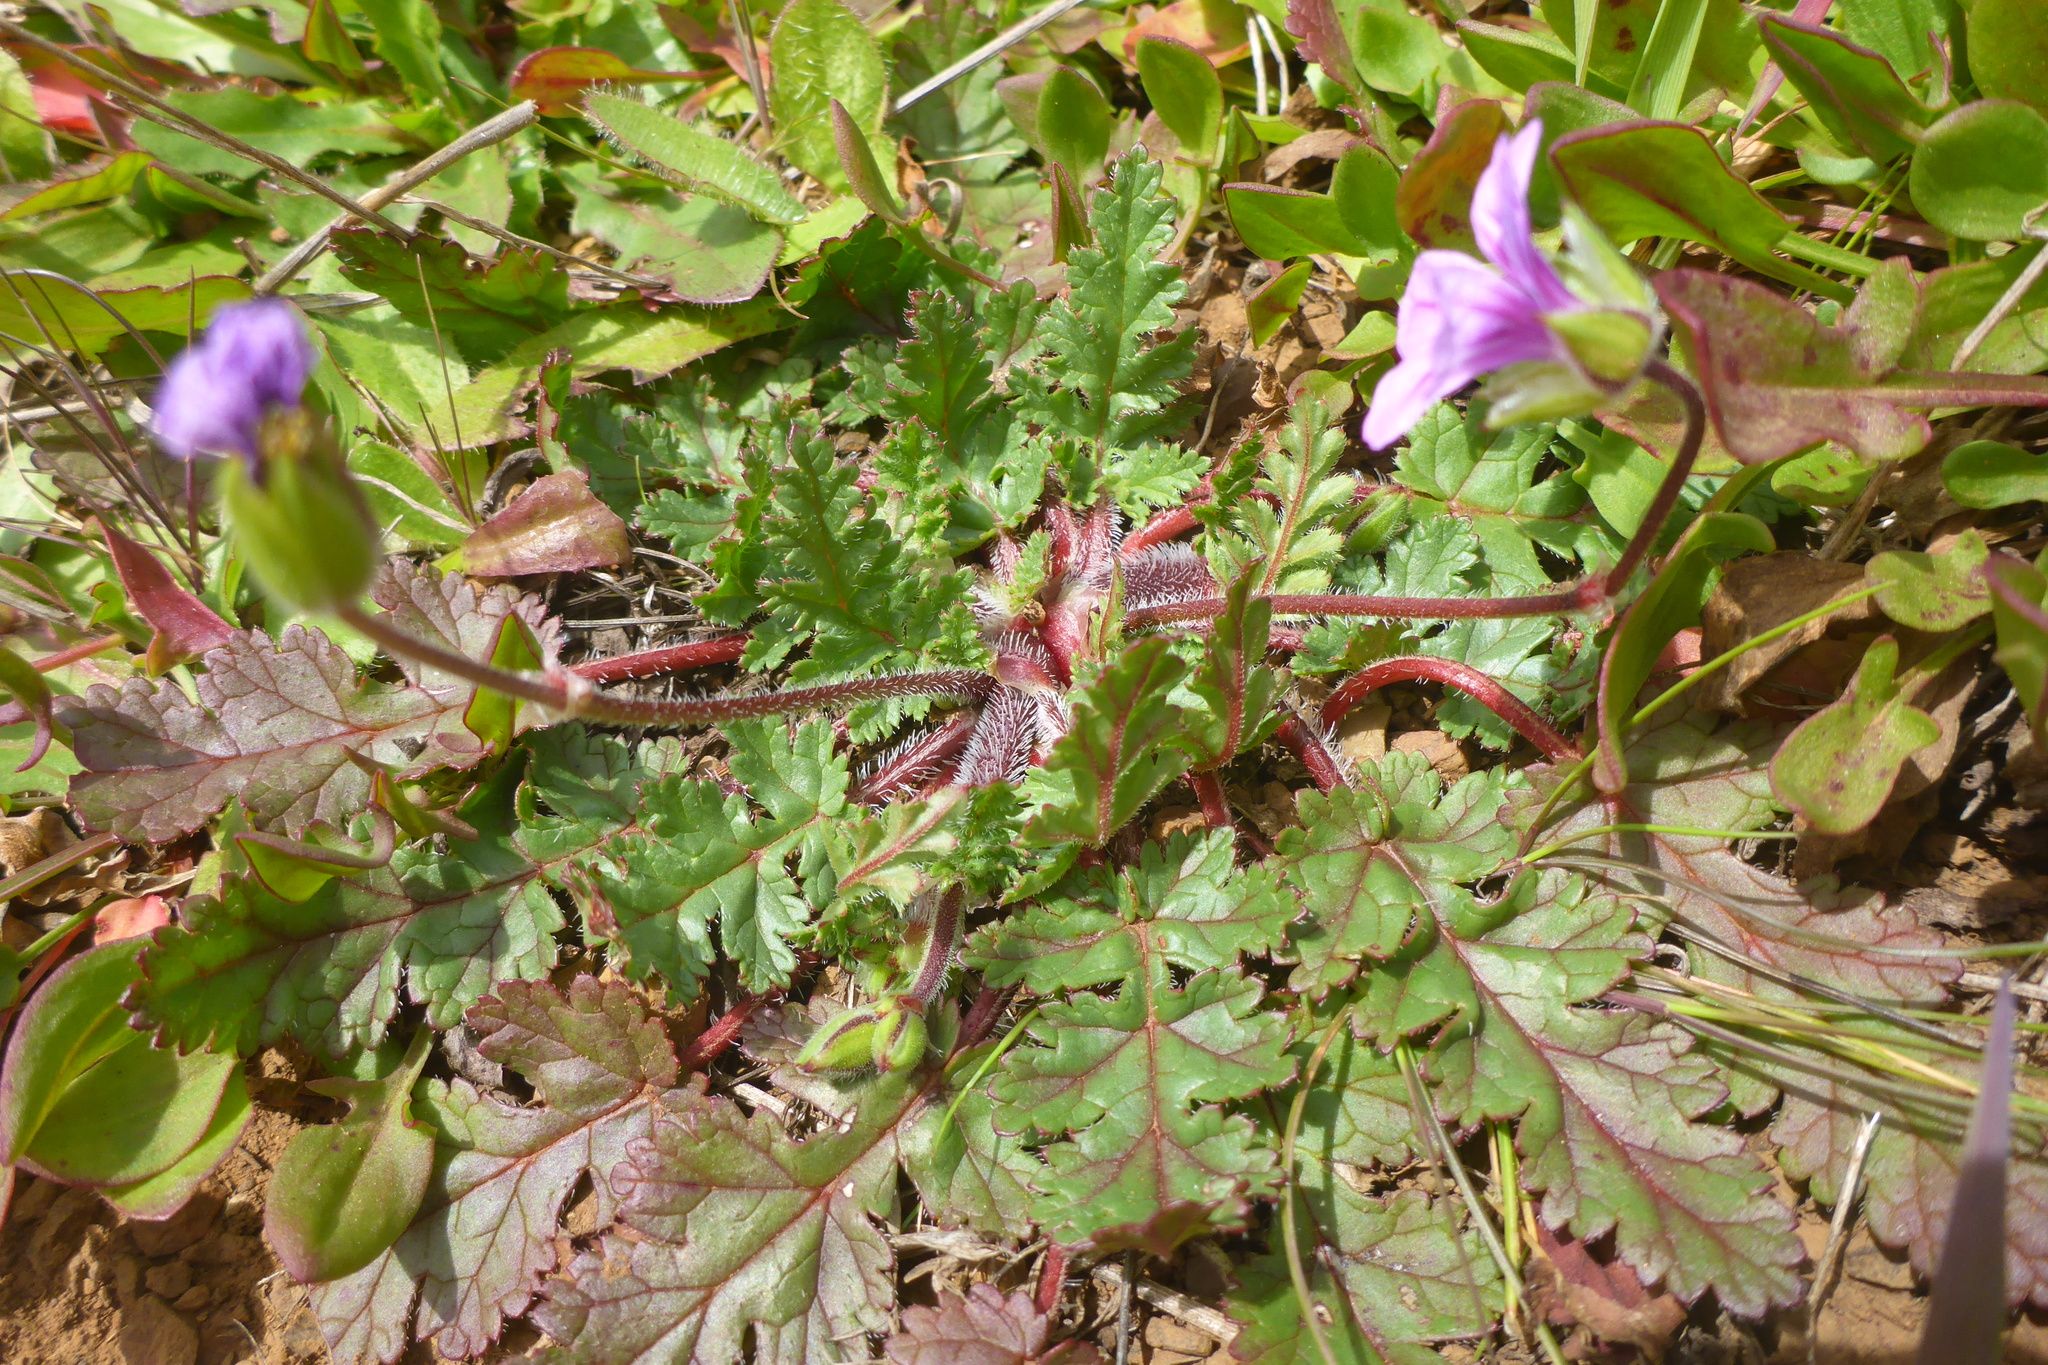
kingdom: Plantae
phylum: Tracheophyta
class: Magnoliopsida
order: Geraniales
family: Geraniaceae
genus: Erodium
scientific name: Erodium botrys
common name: Mediterranean stork's-bill
